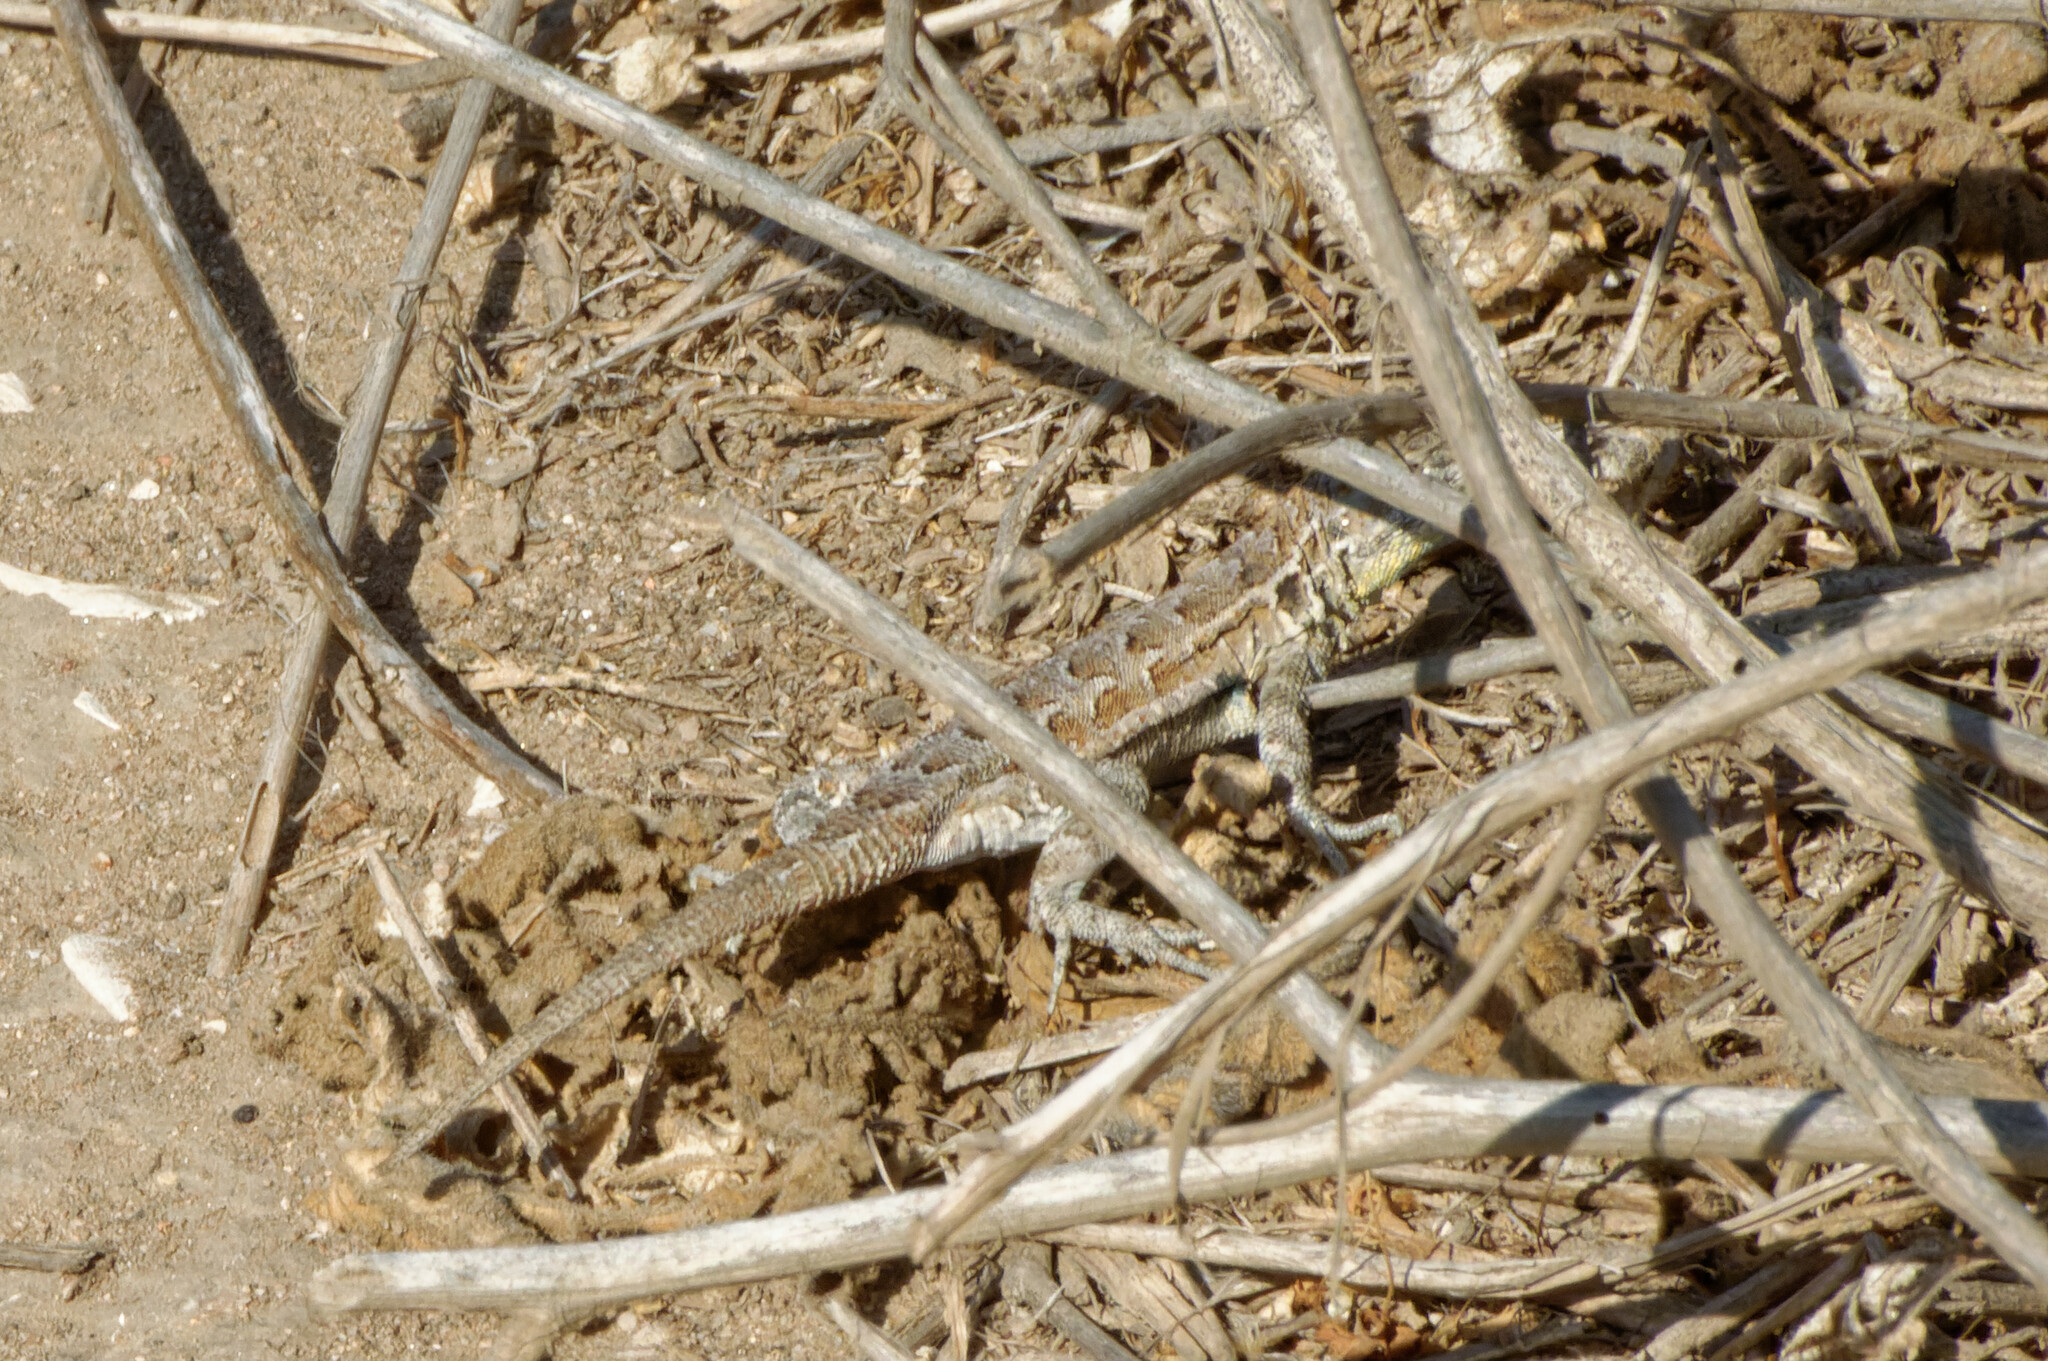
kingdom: Animalia
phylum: Chordata
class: Squamata
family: Phrynosomatidae
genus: Uta
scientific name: Uta stansburiana
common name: Side-blotched lizard
